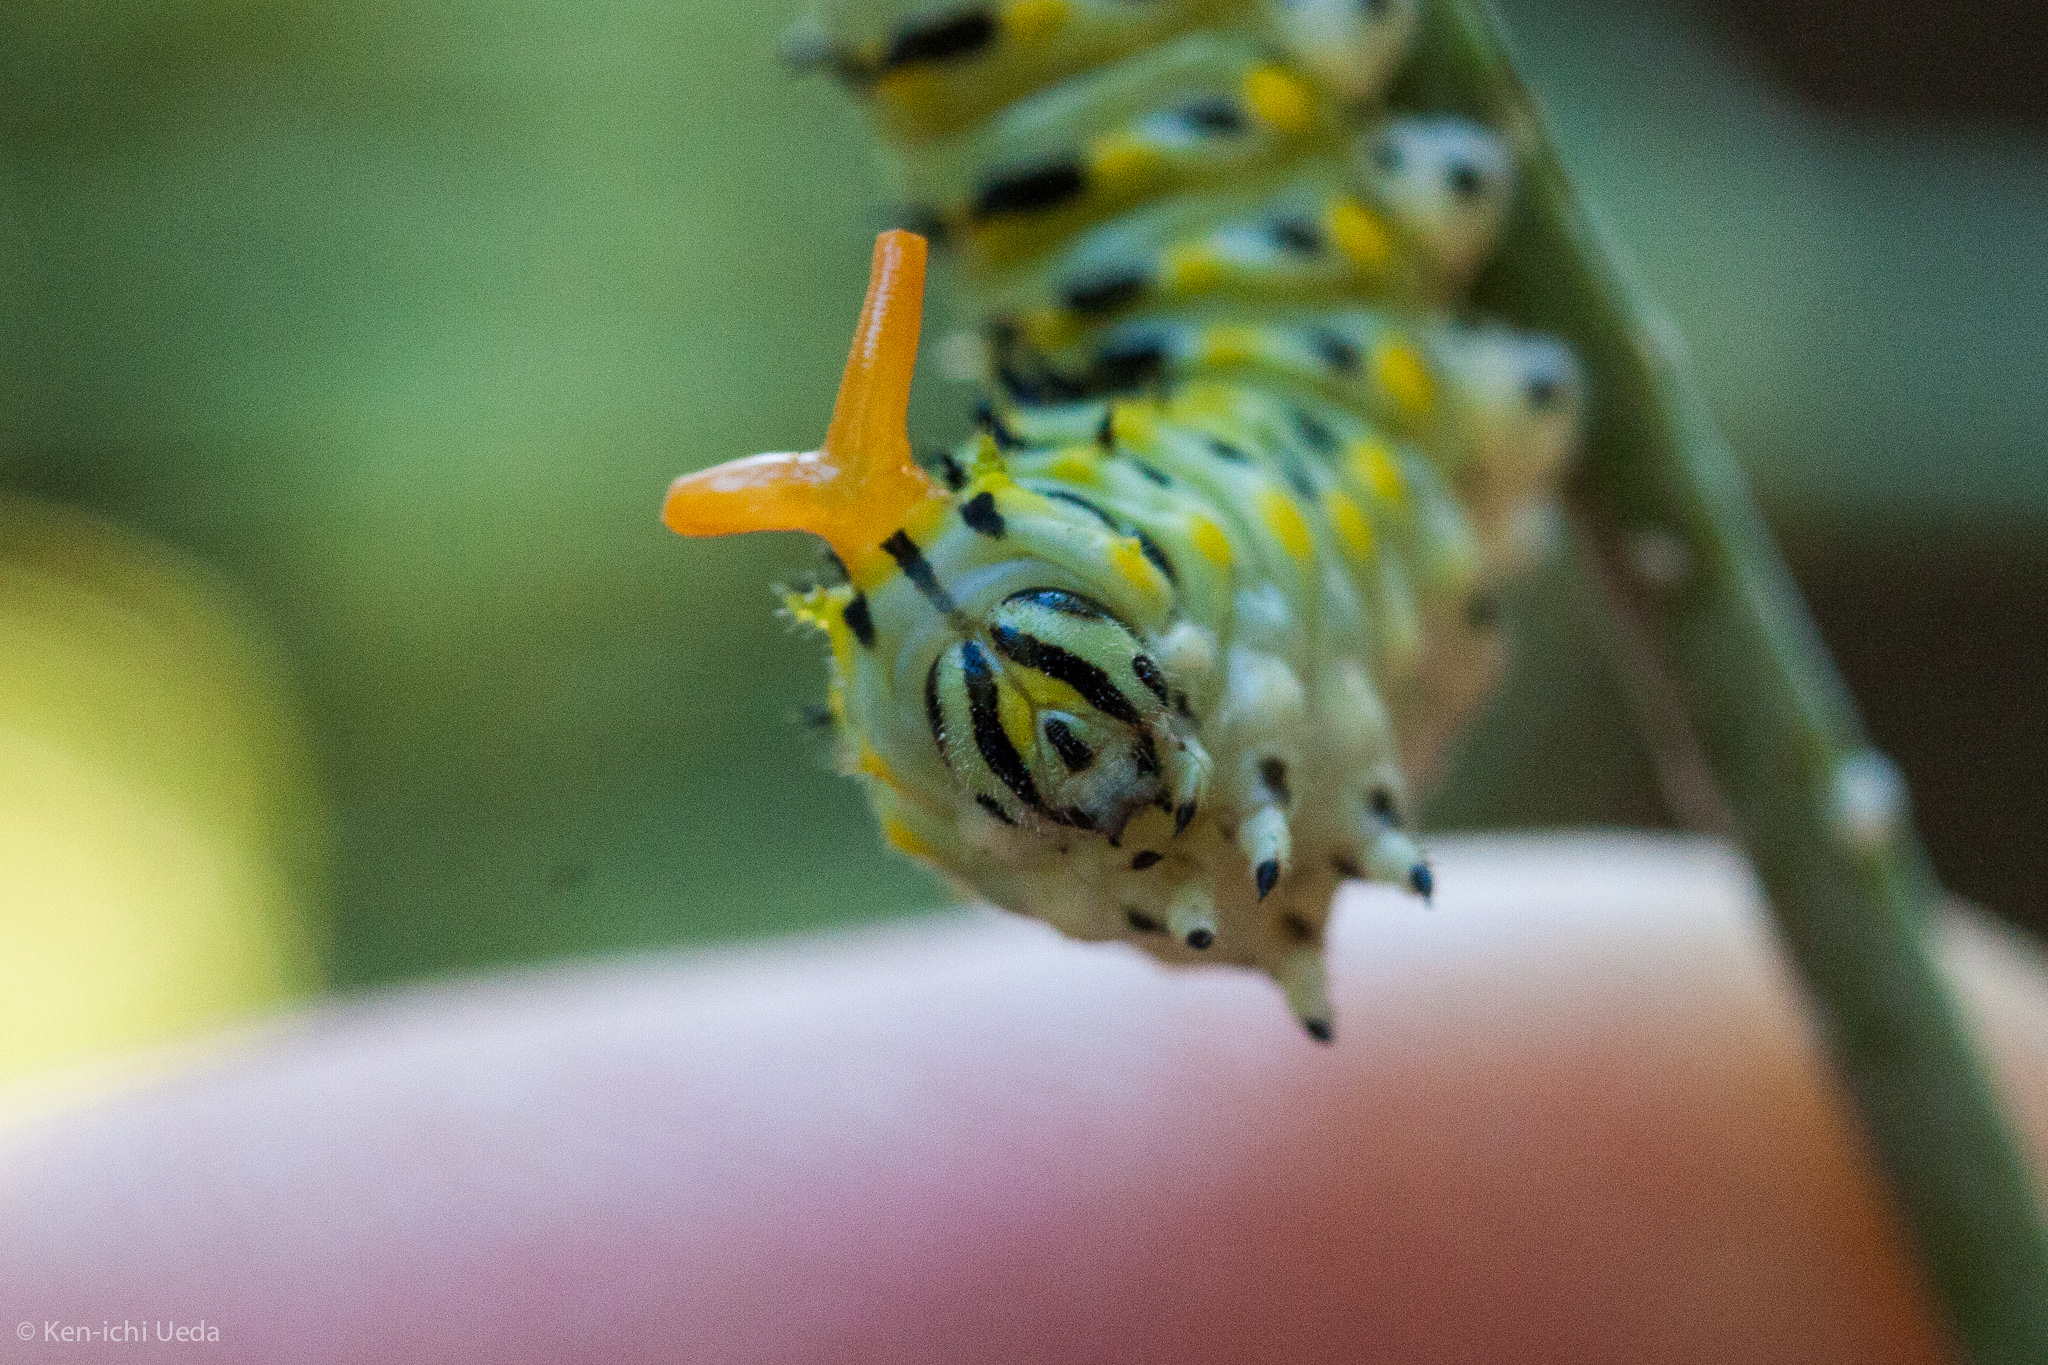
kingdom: Animalia
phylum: Arthropoda
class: Insecta
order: Lepidoptera
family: Papilionidae
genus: Papilio
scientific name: Papilio zelicaon
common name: Anise swallowtail
